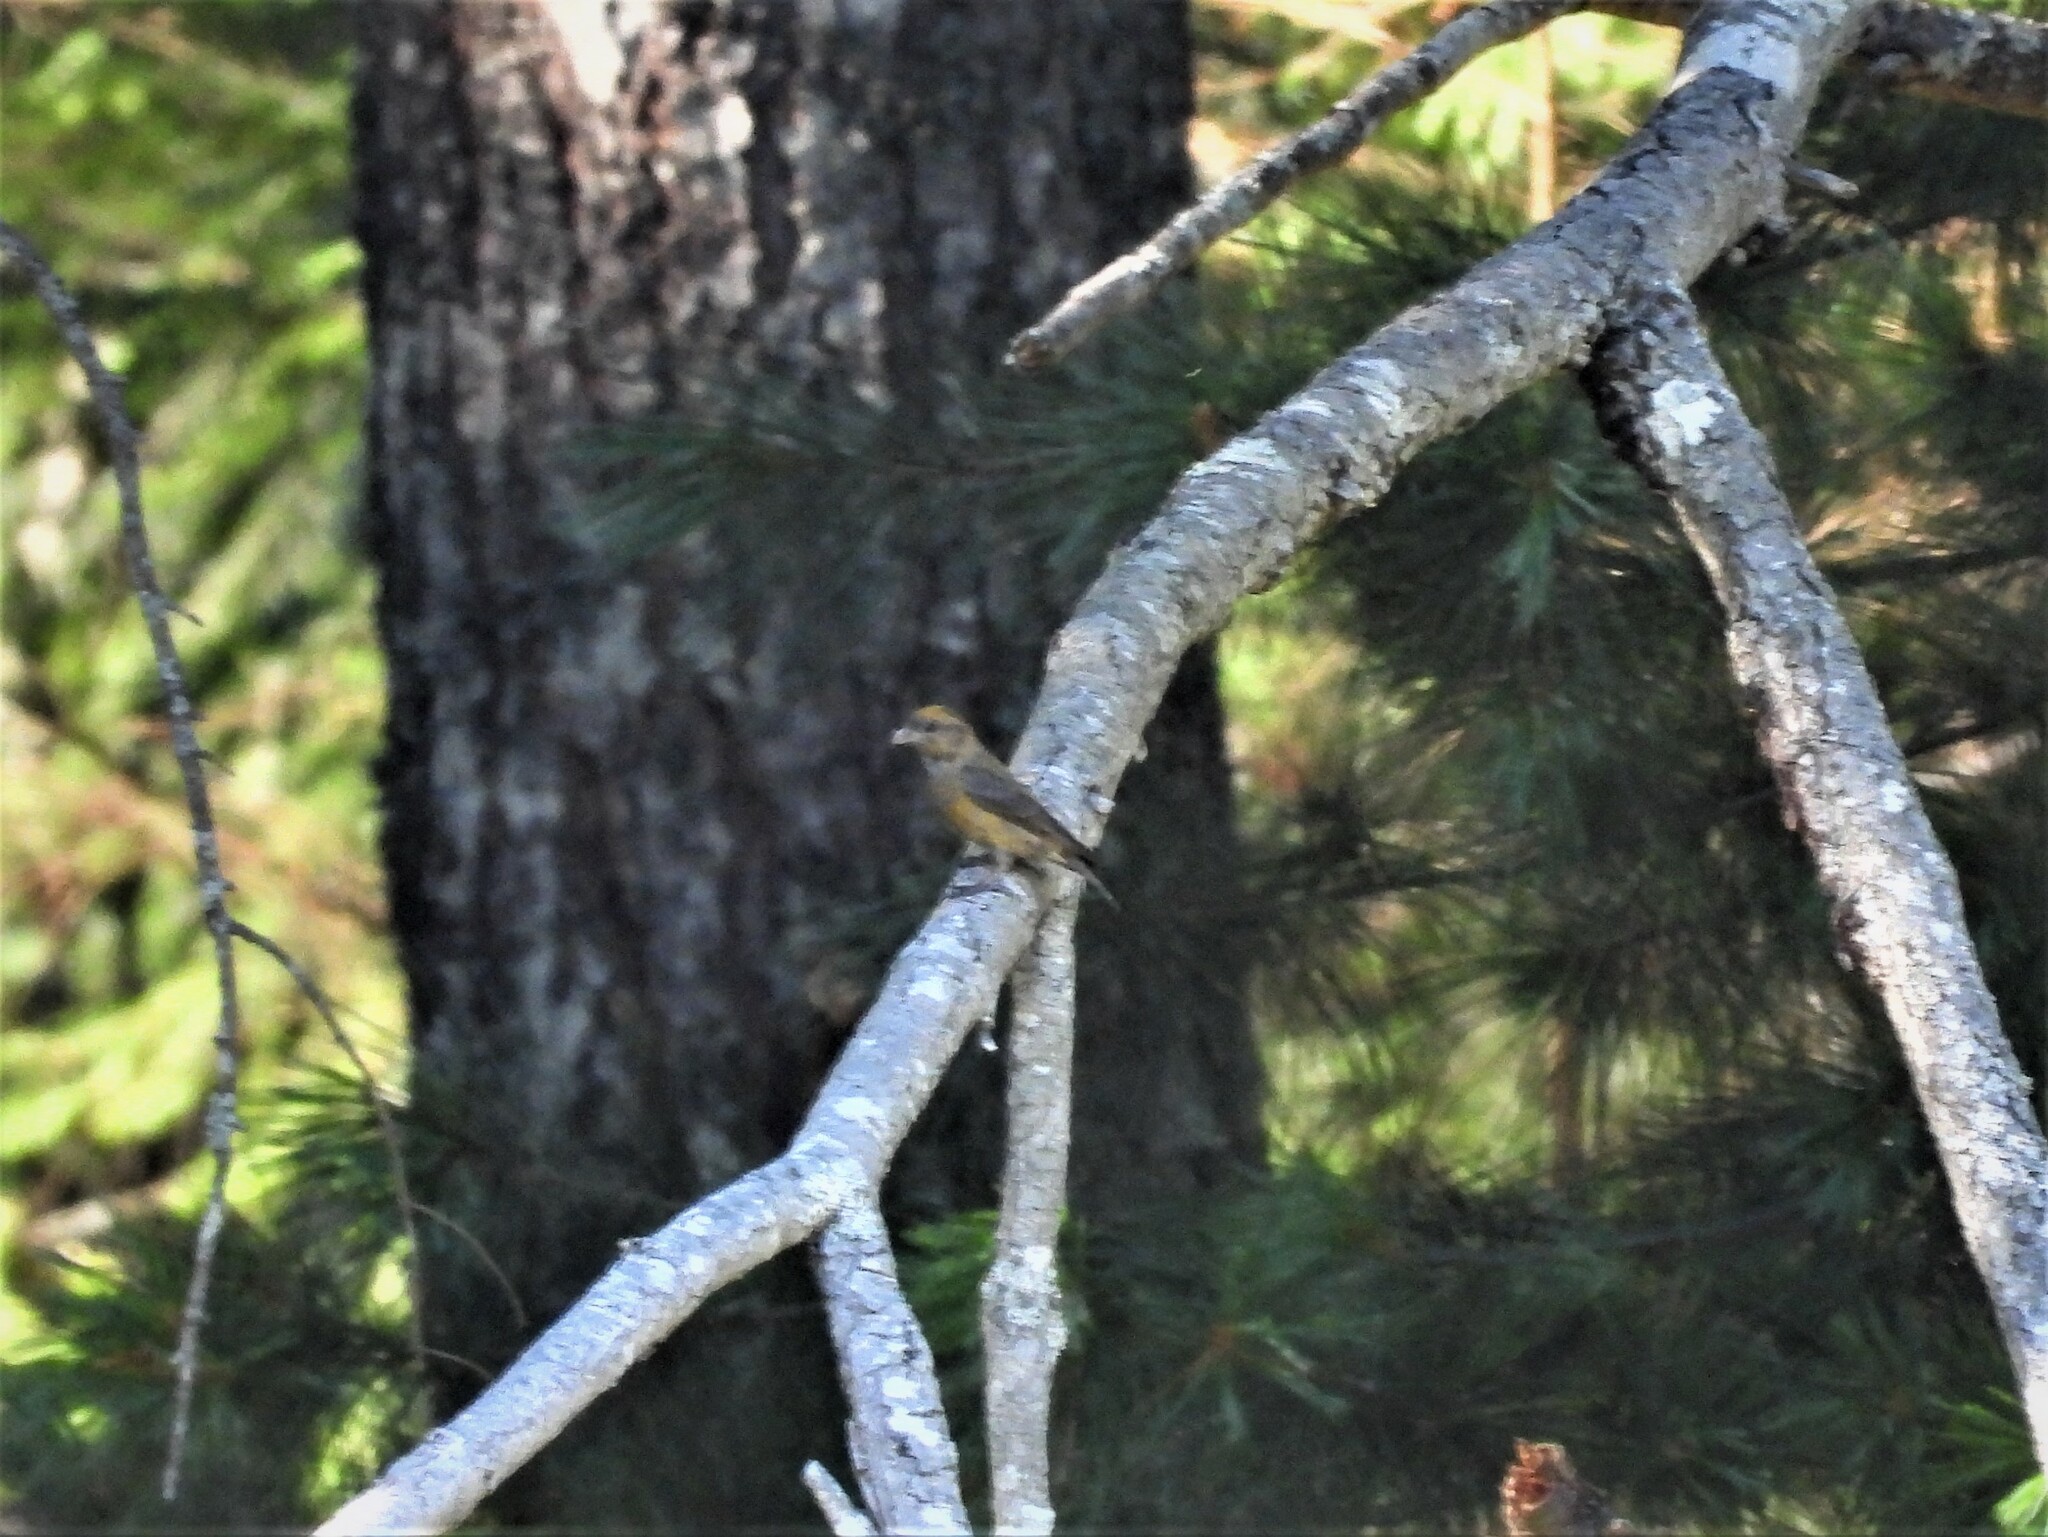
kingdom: Animalia
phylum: Chordata
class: Aves
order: Passeriformes
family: Fringillidae
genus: Loxia
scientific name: Loxia curvirostra
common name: Red crossbill
